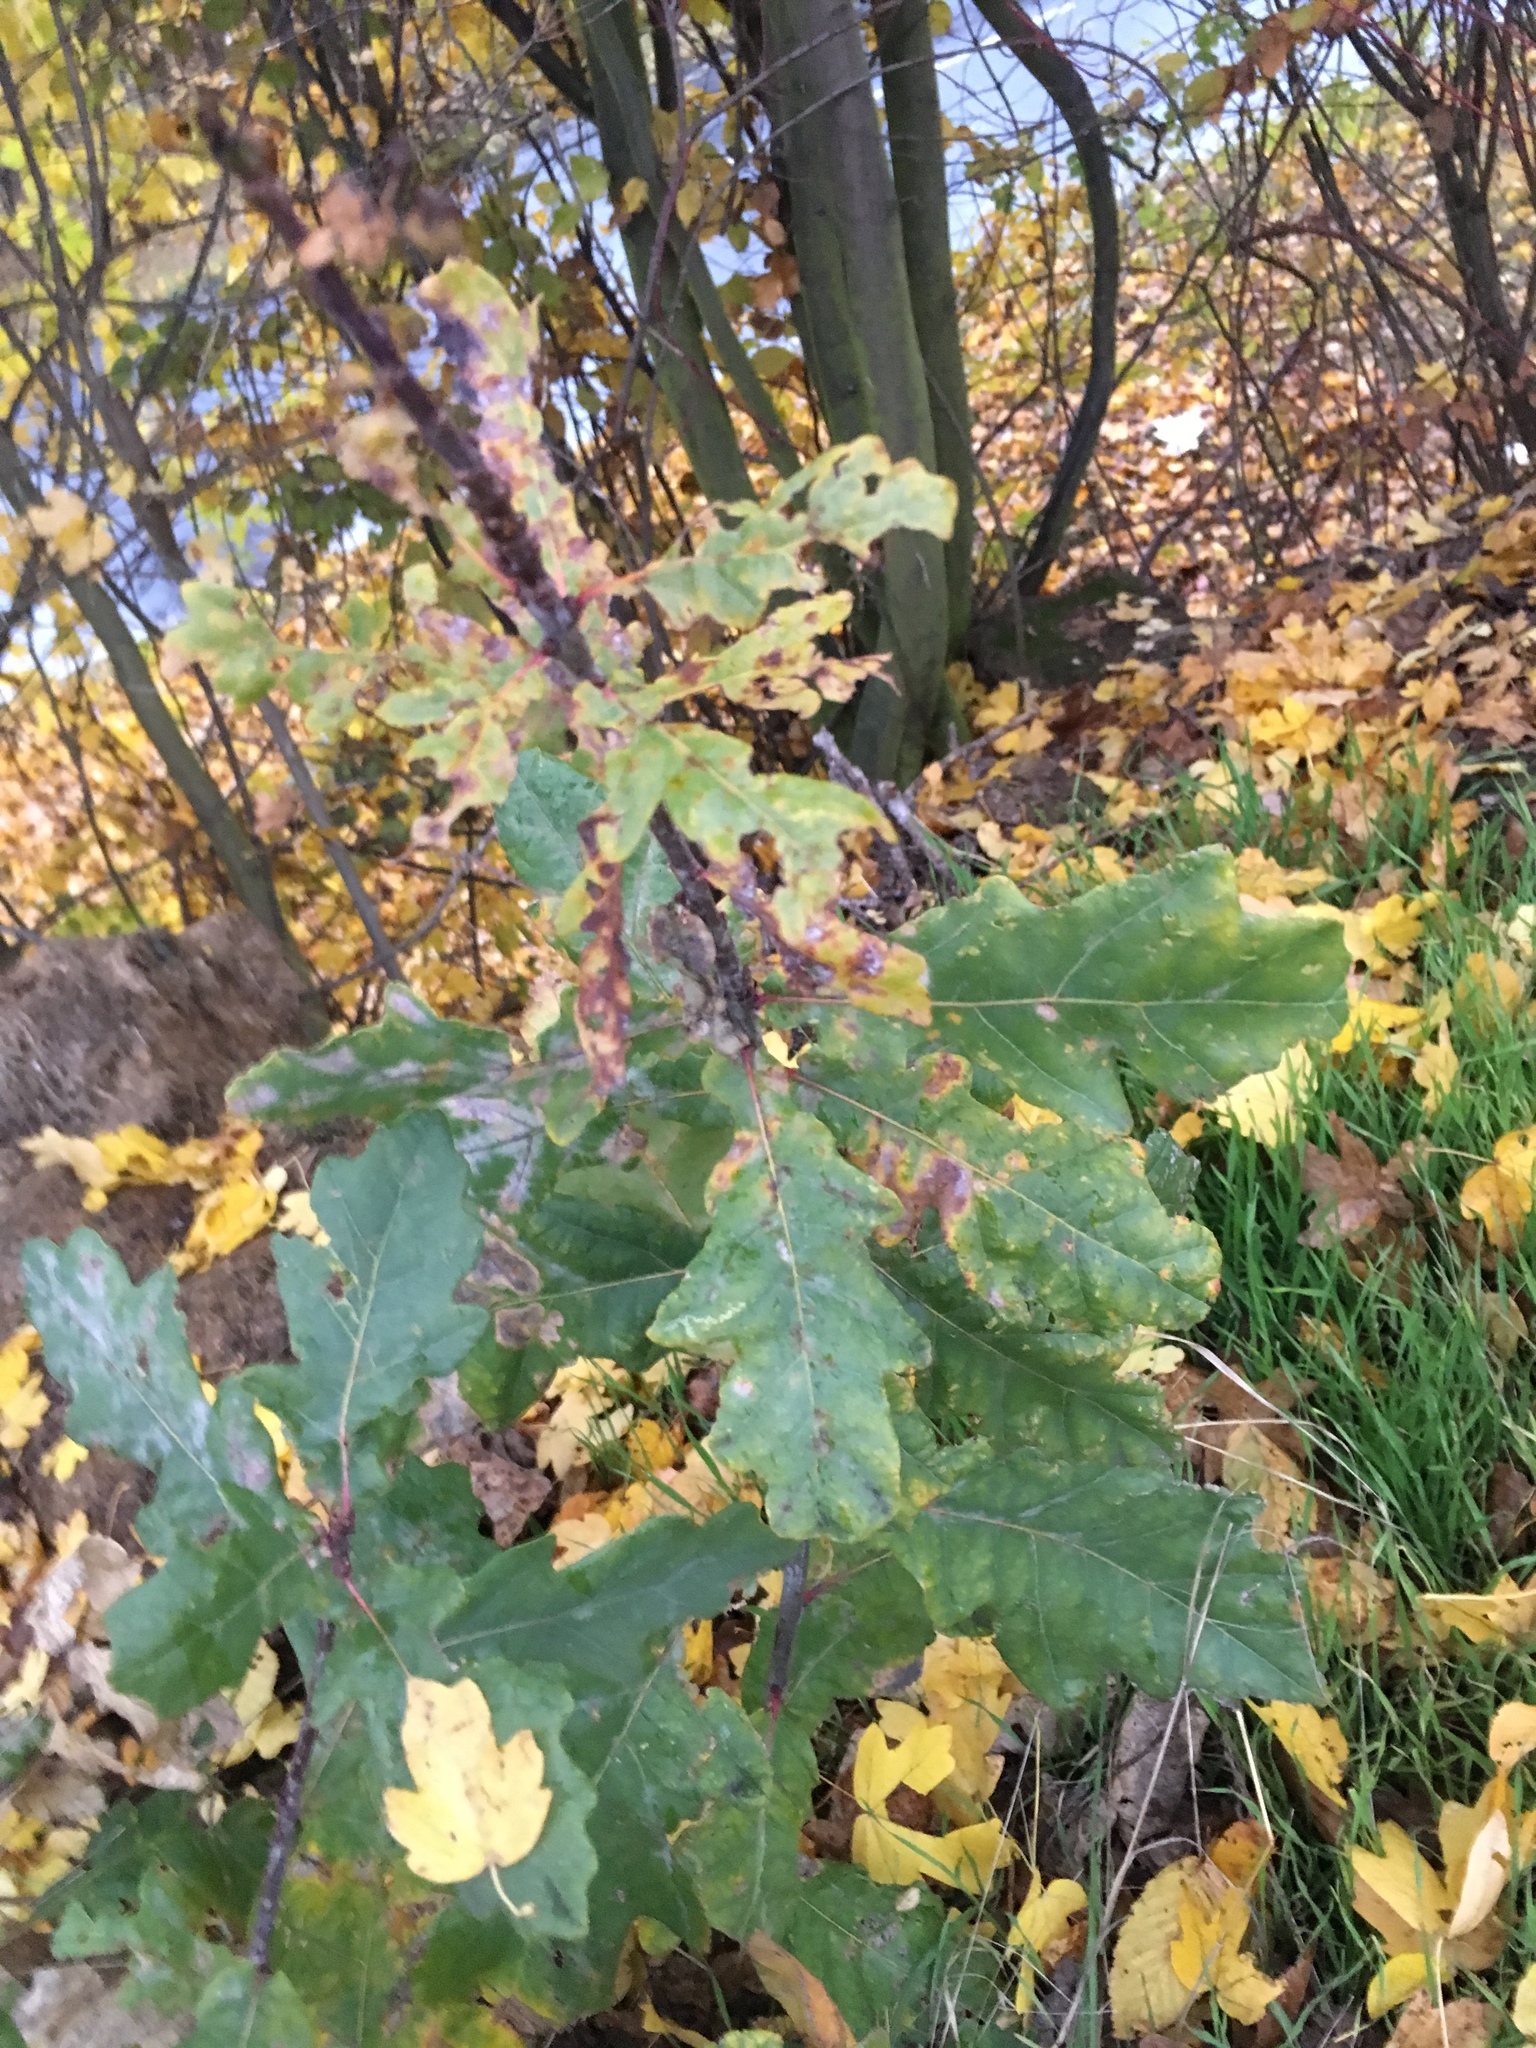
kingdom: Plantae
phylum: Tracheophyta
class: Magnoliopsida
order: Fagales
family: Fagaceae
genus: Quercus
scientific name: Quercus robur
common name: Pedunculate oak
